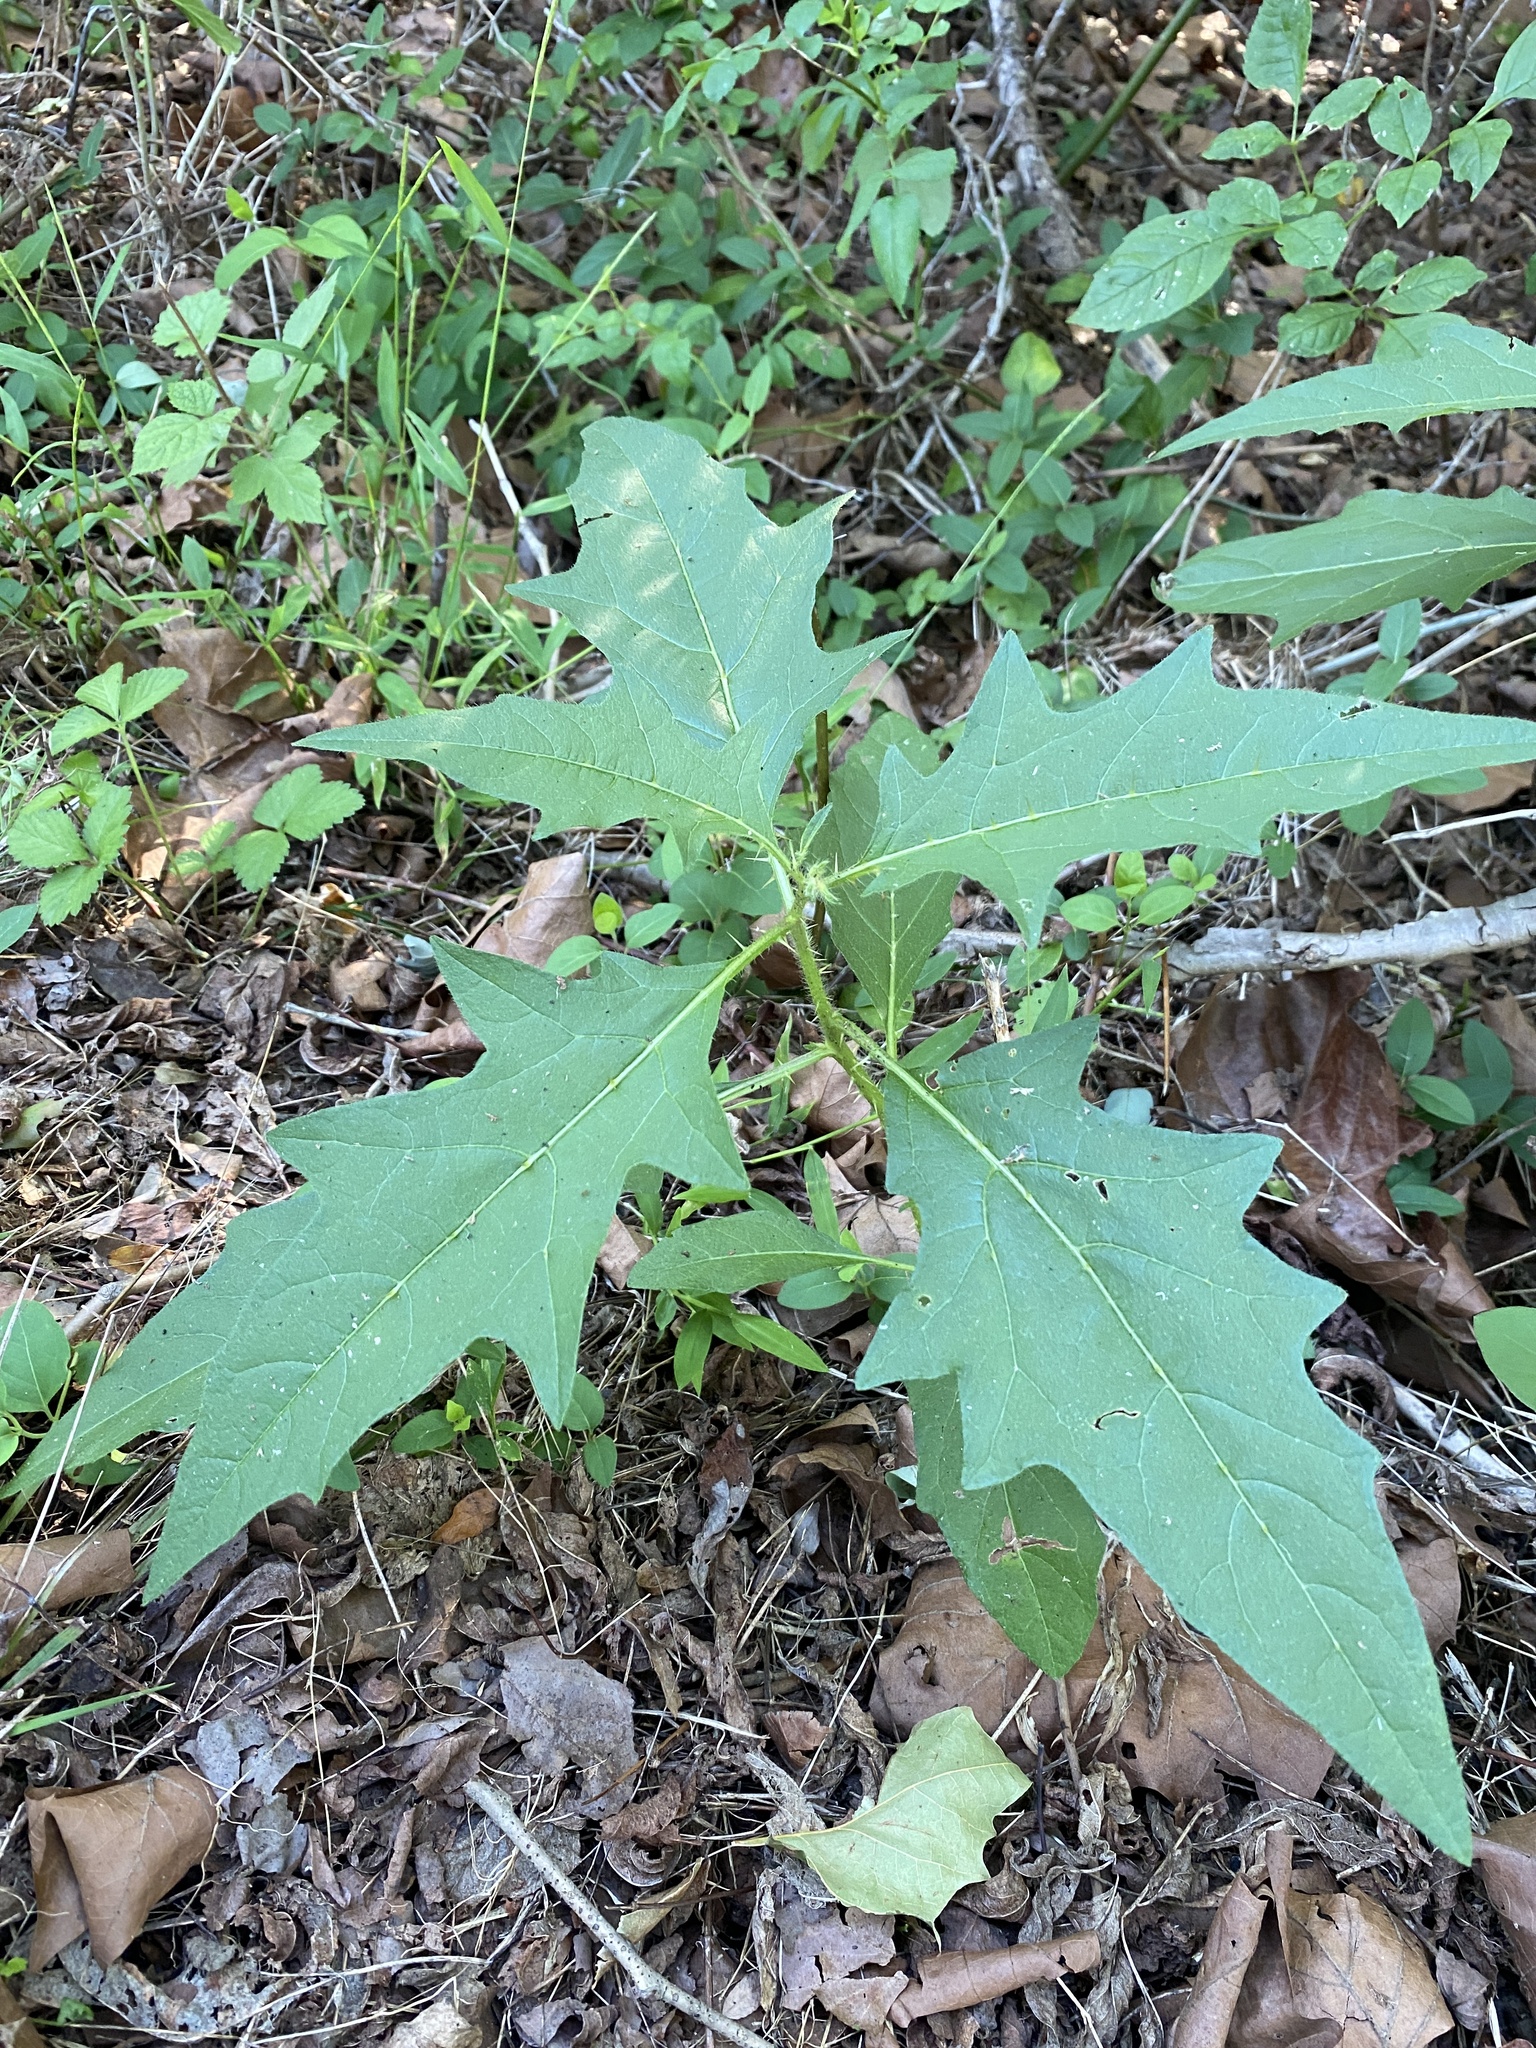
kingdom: Plantae
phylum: Tracheophyta
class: Magnoliopsida
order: Solanales
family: Solanaceae
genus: Solanum
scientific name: Solanum carolinense
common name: Horse-nettle
